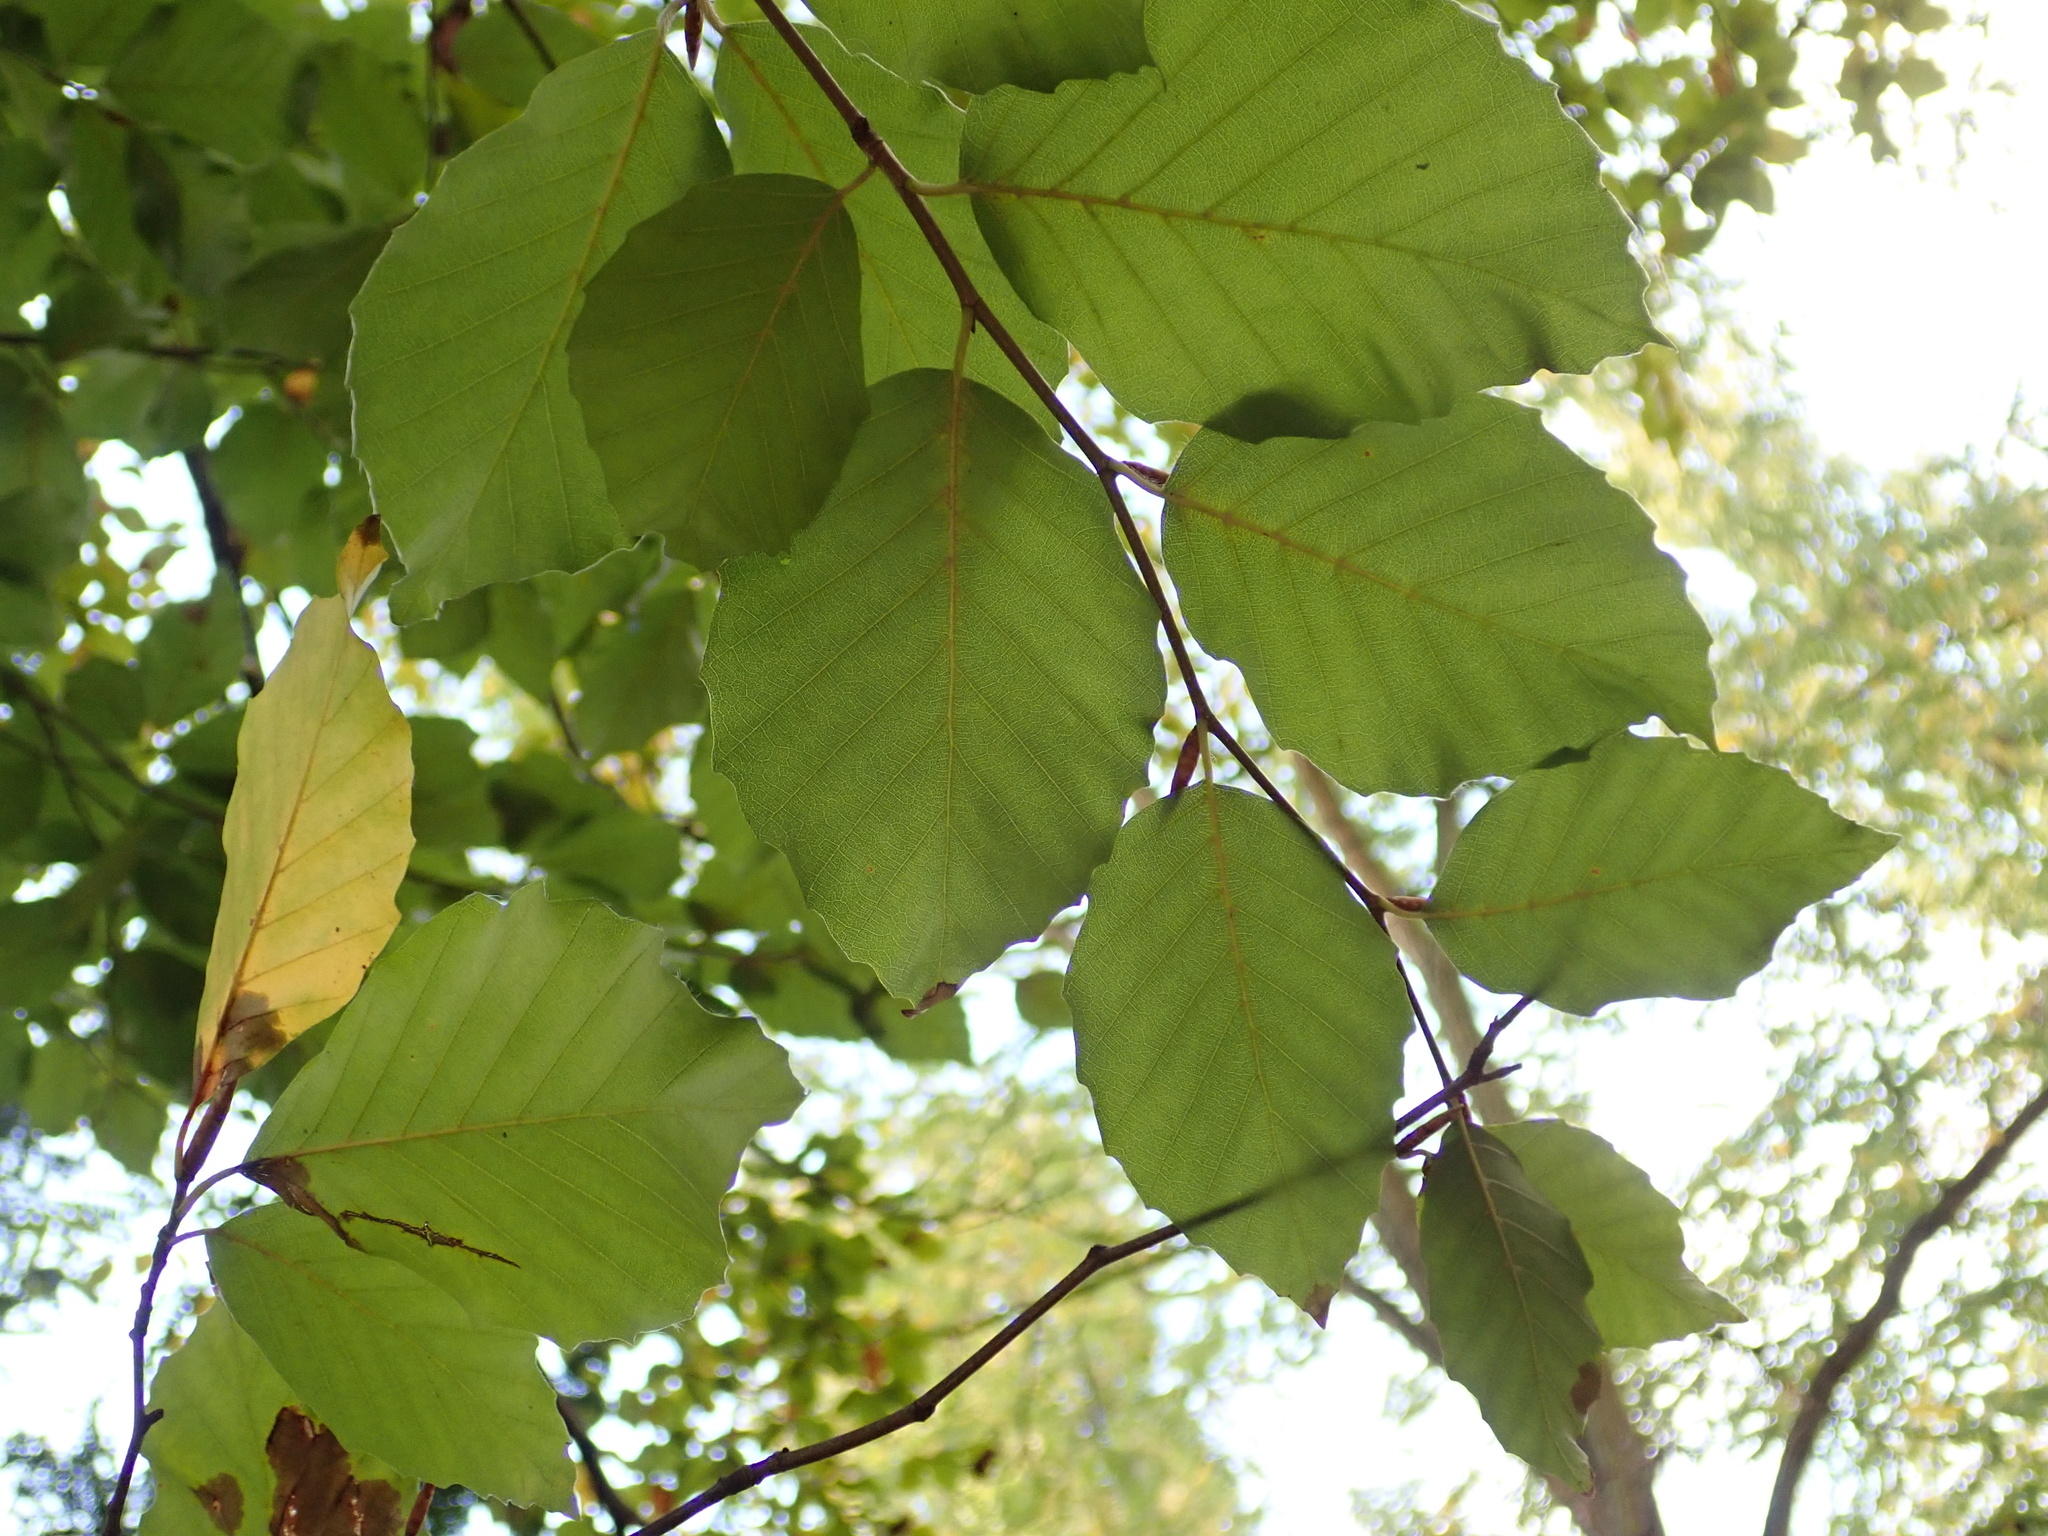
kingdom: Plantae
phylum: Tracheophyta
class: Magnoliopsida
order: Fagales
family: Fagaceae
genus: Fagus
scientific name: Fagus sylvatica
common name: Beech
